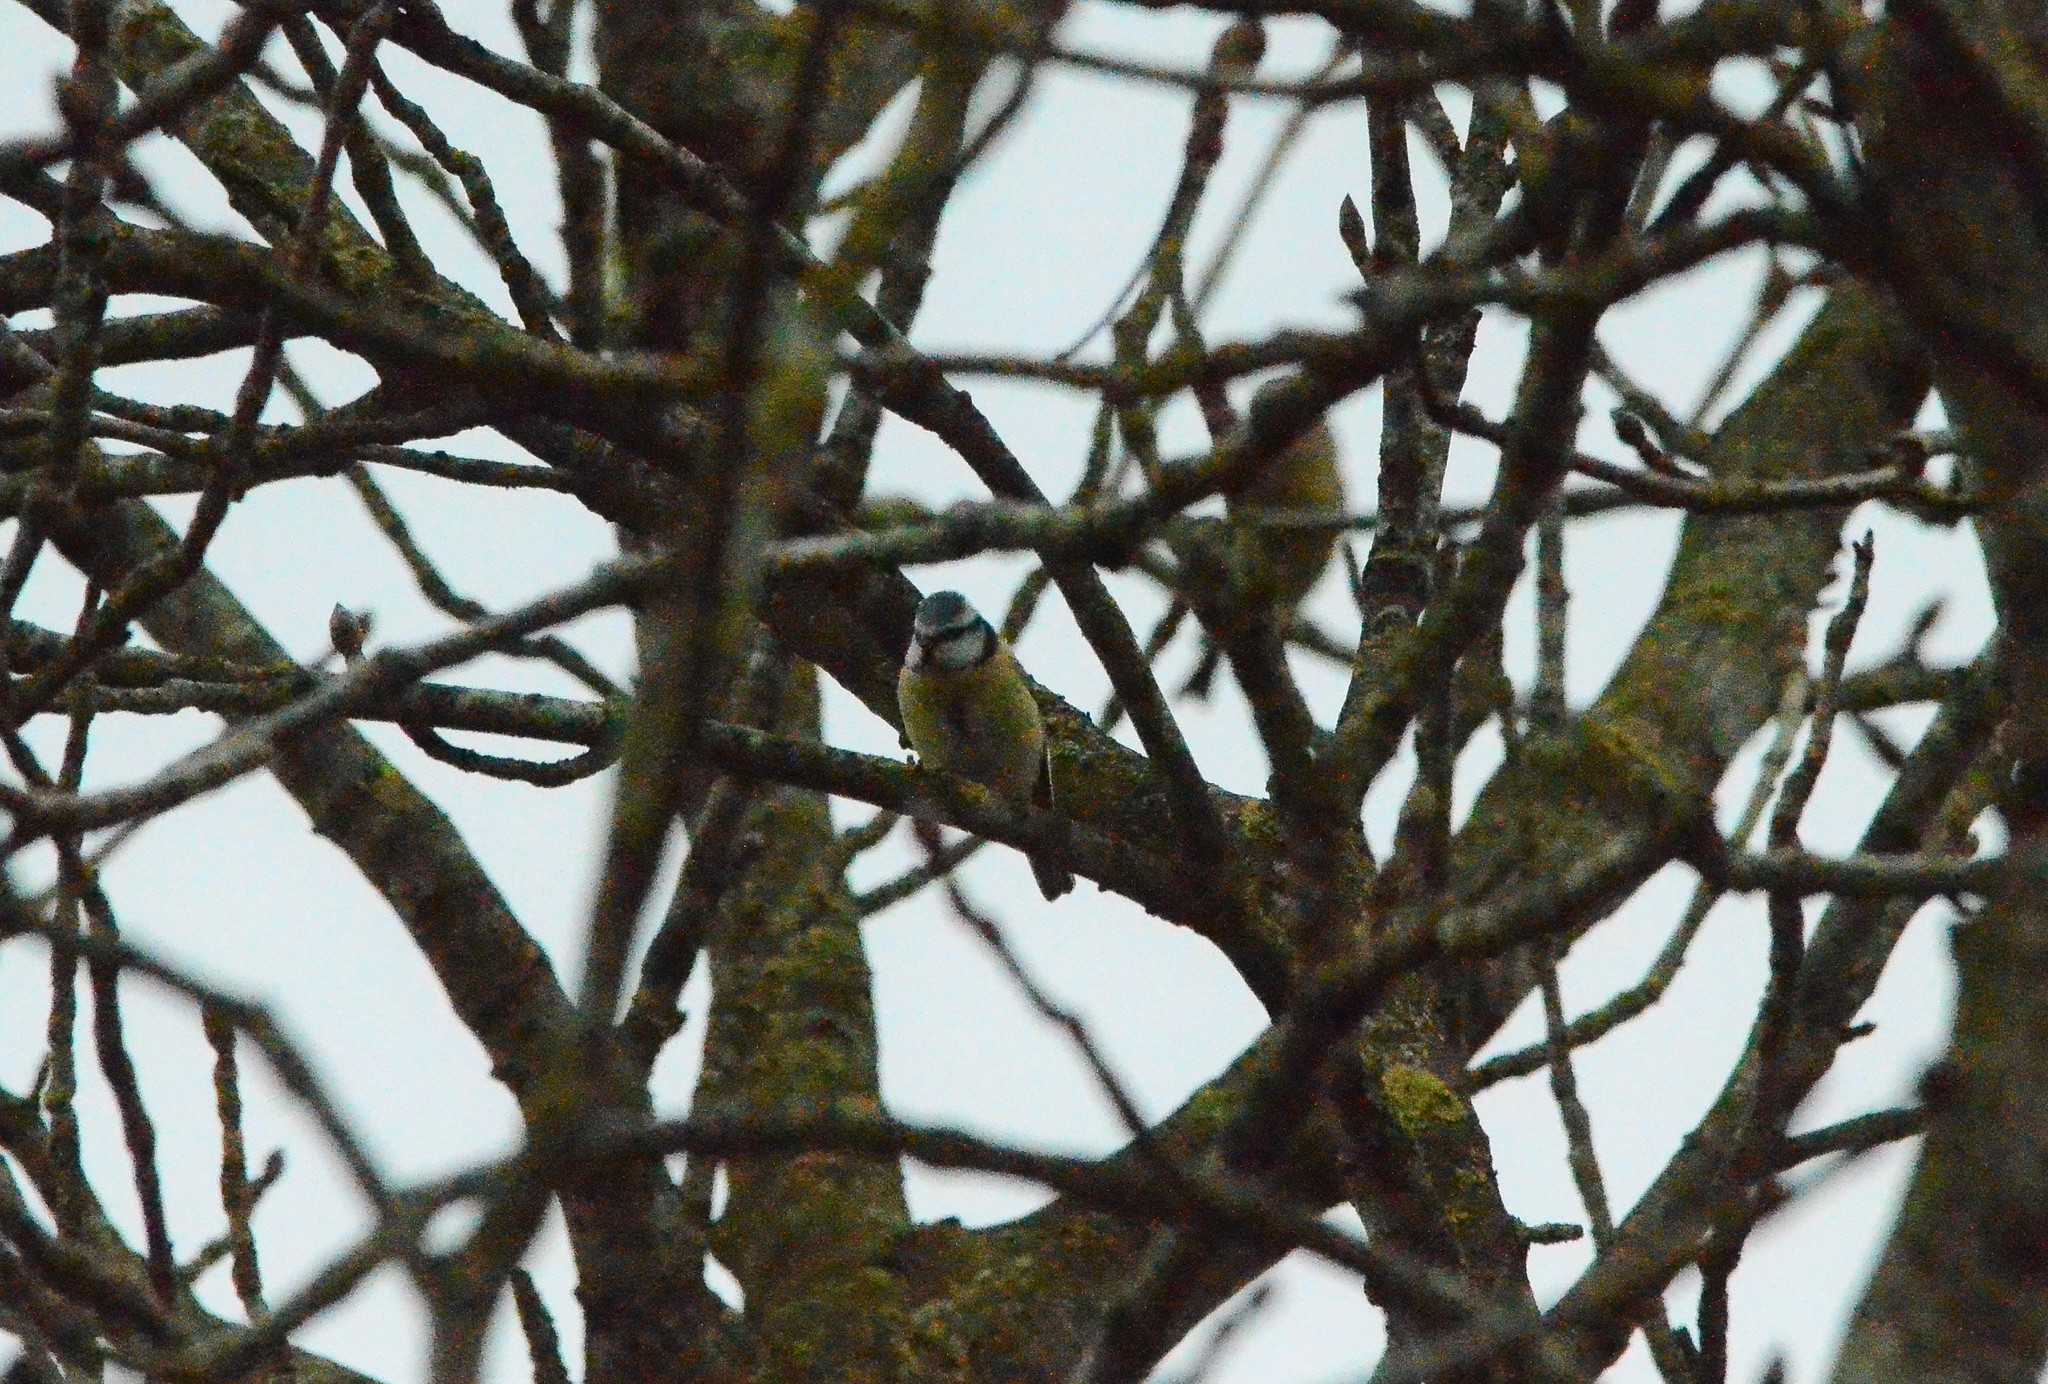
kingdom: Animalia
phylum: Chordata
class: Aves
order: Passeriformes
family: Paridae
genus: Cyanistes
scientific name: Cyanistes caeruleus
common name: Eurasian blue tit
